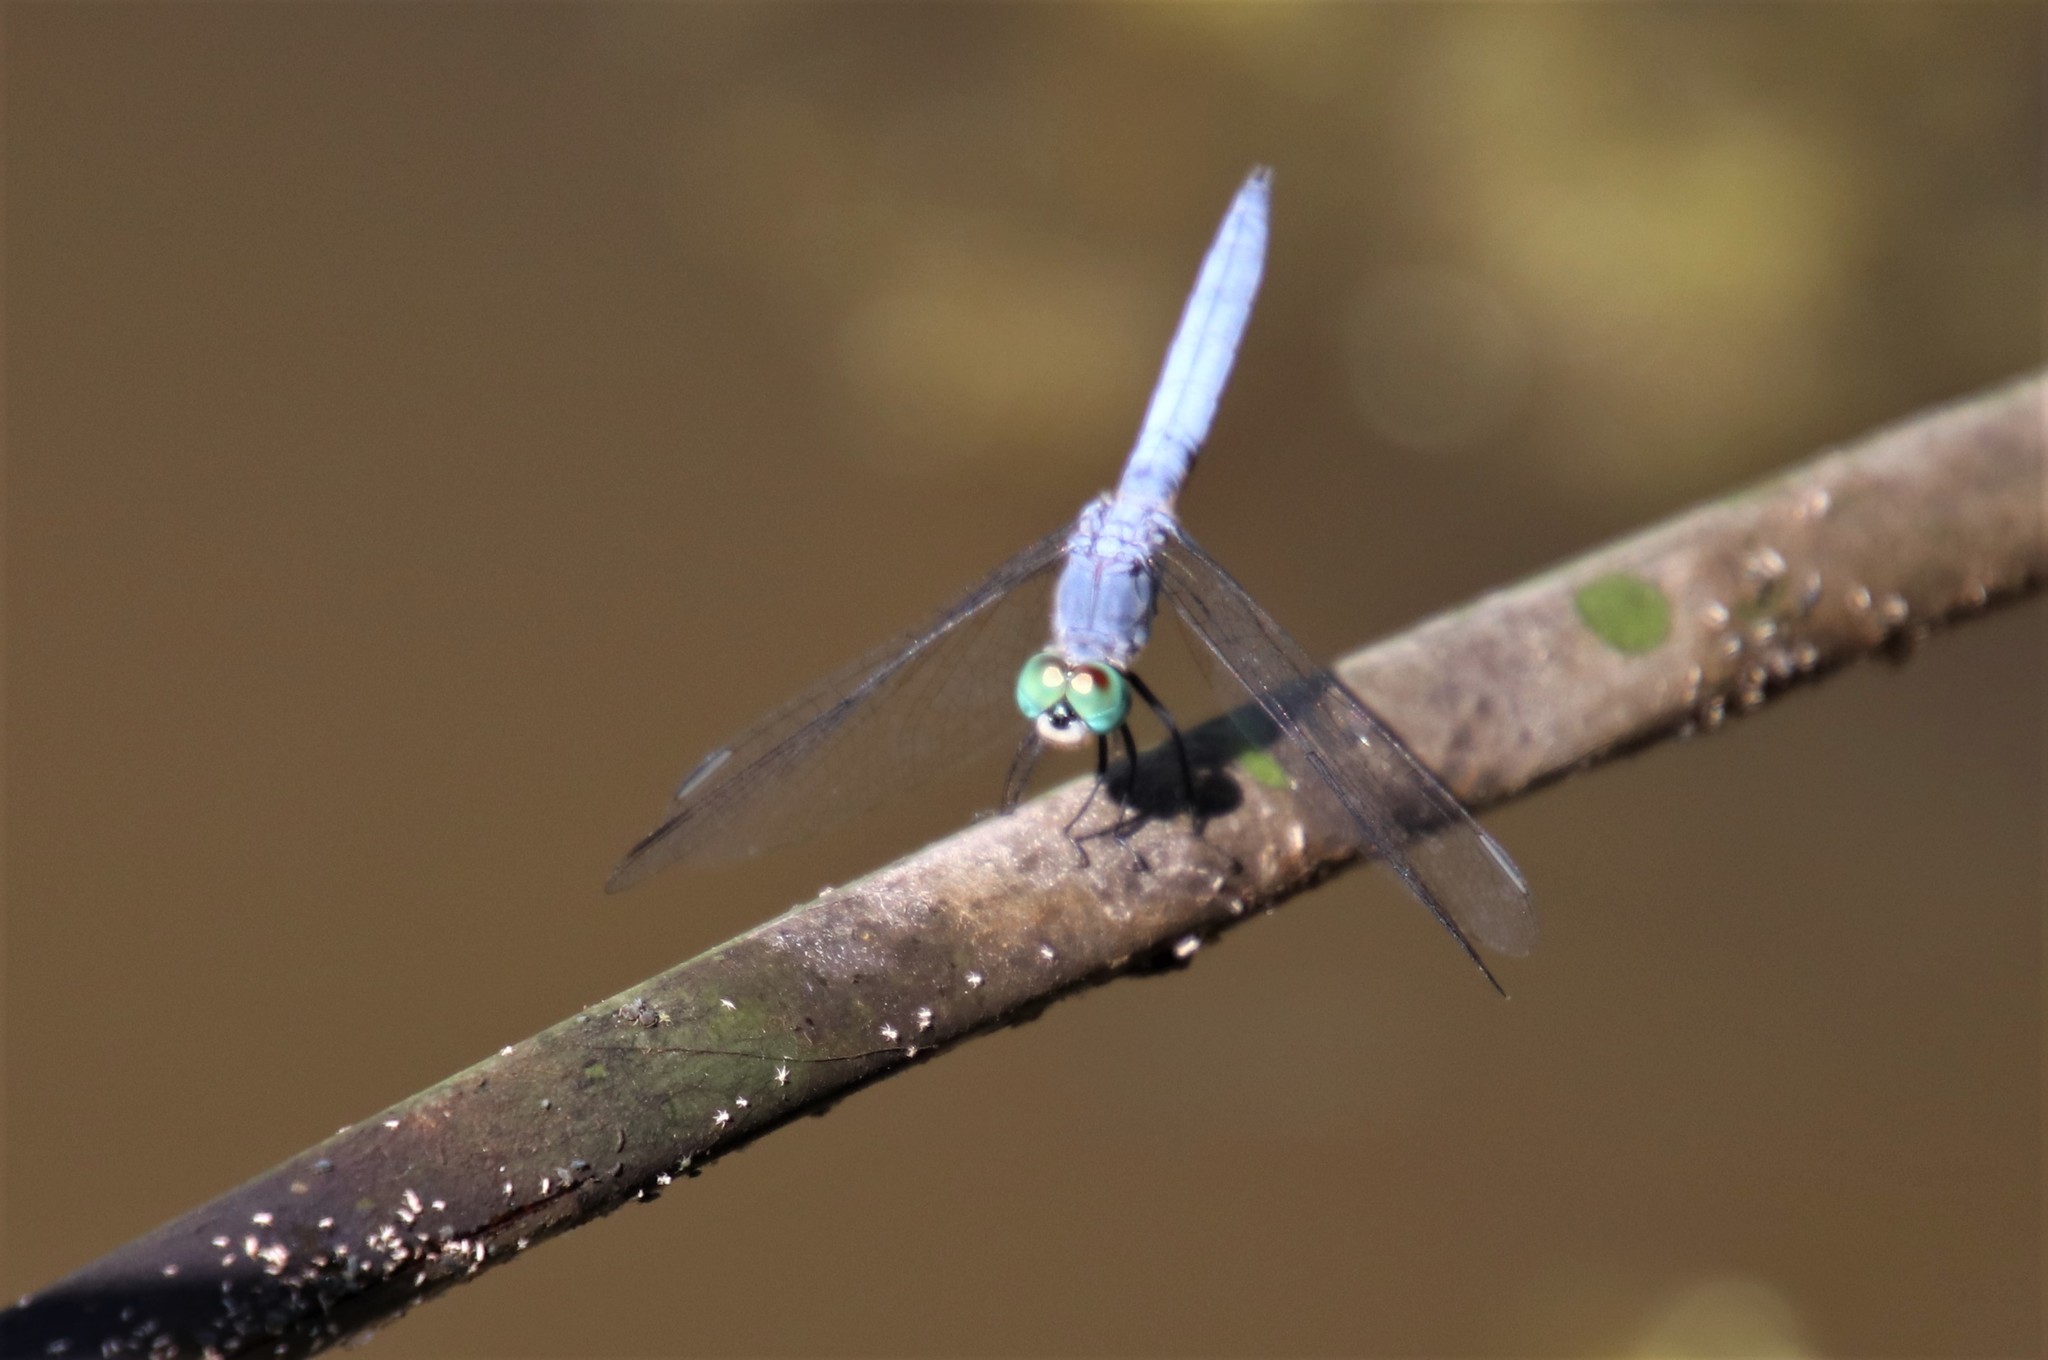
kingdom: Animalia
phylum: Arthropoda
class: Insecta
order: Odonata
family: Libellulidae
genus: Pachydiplax
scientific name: Pachydiplax longipennis
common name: Blue dasher
